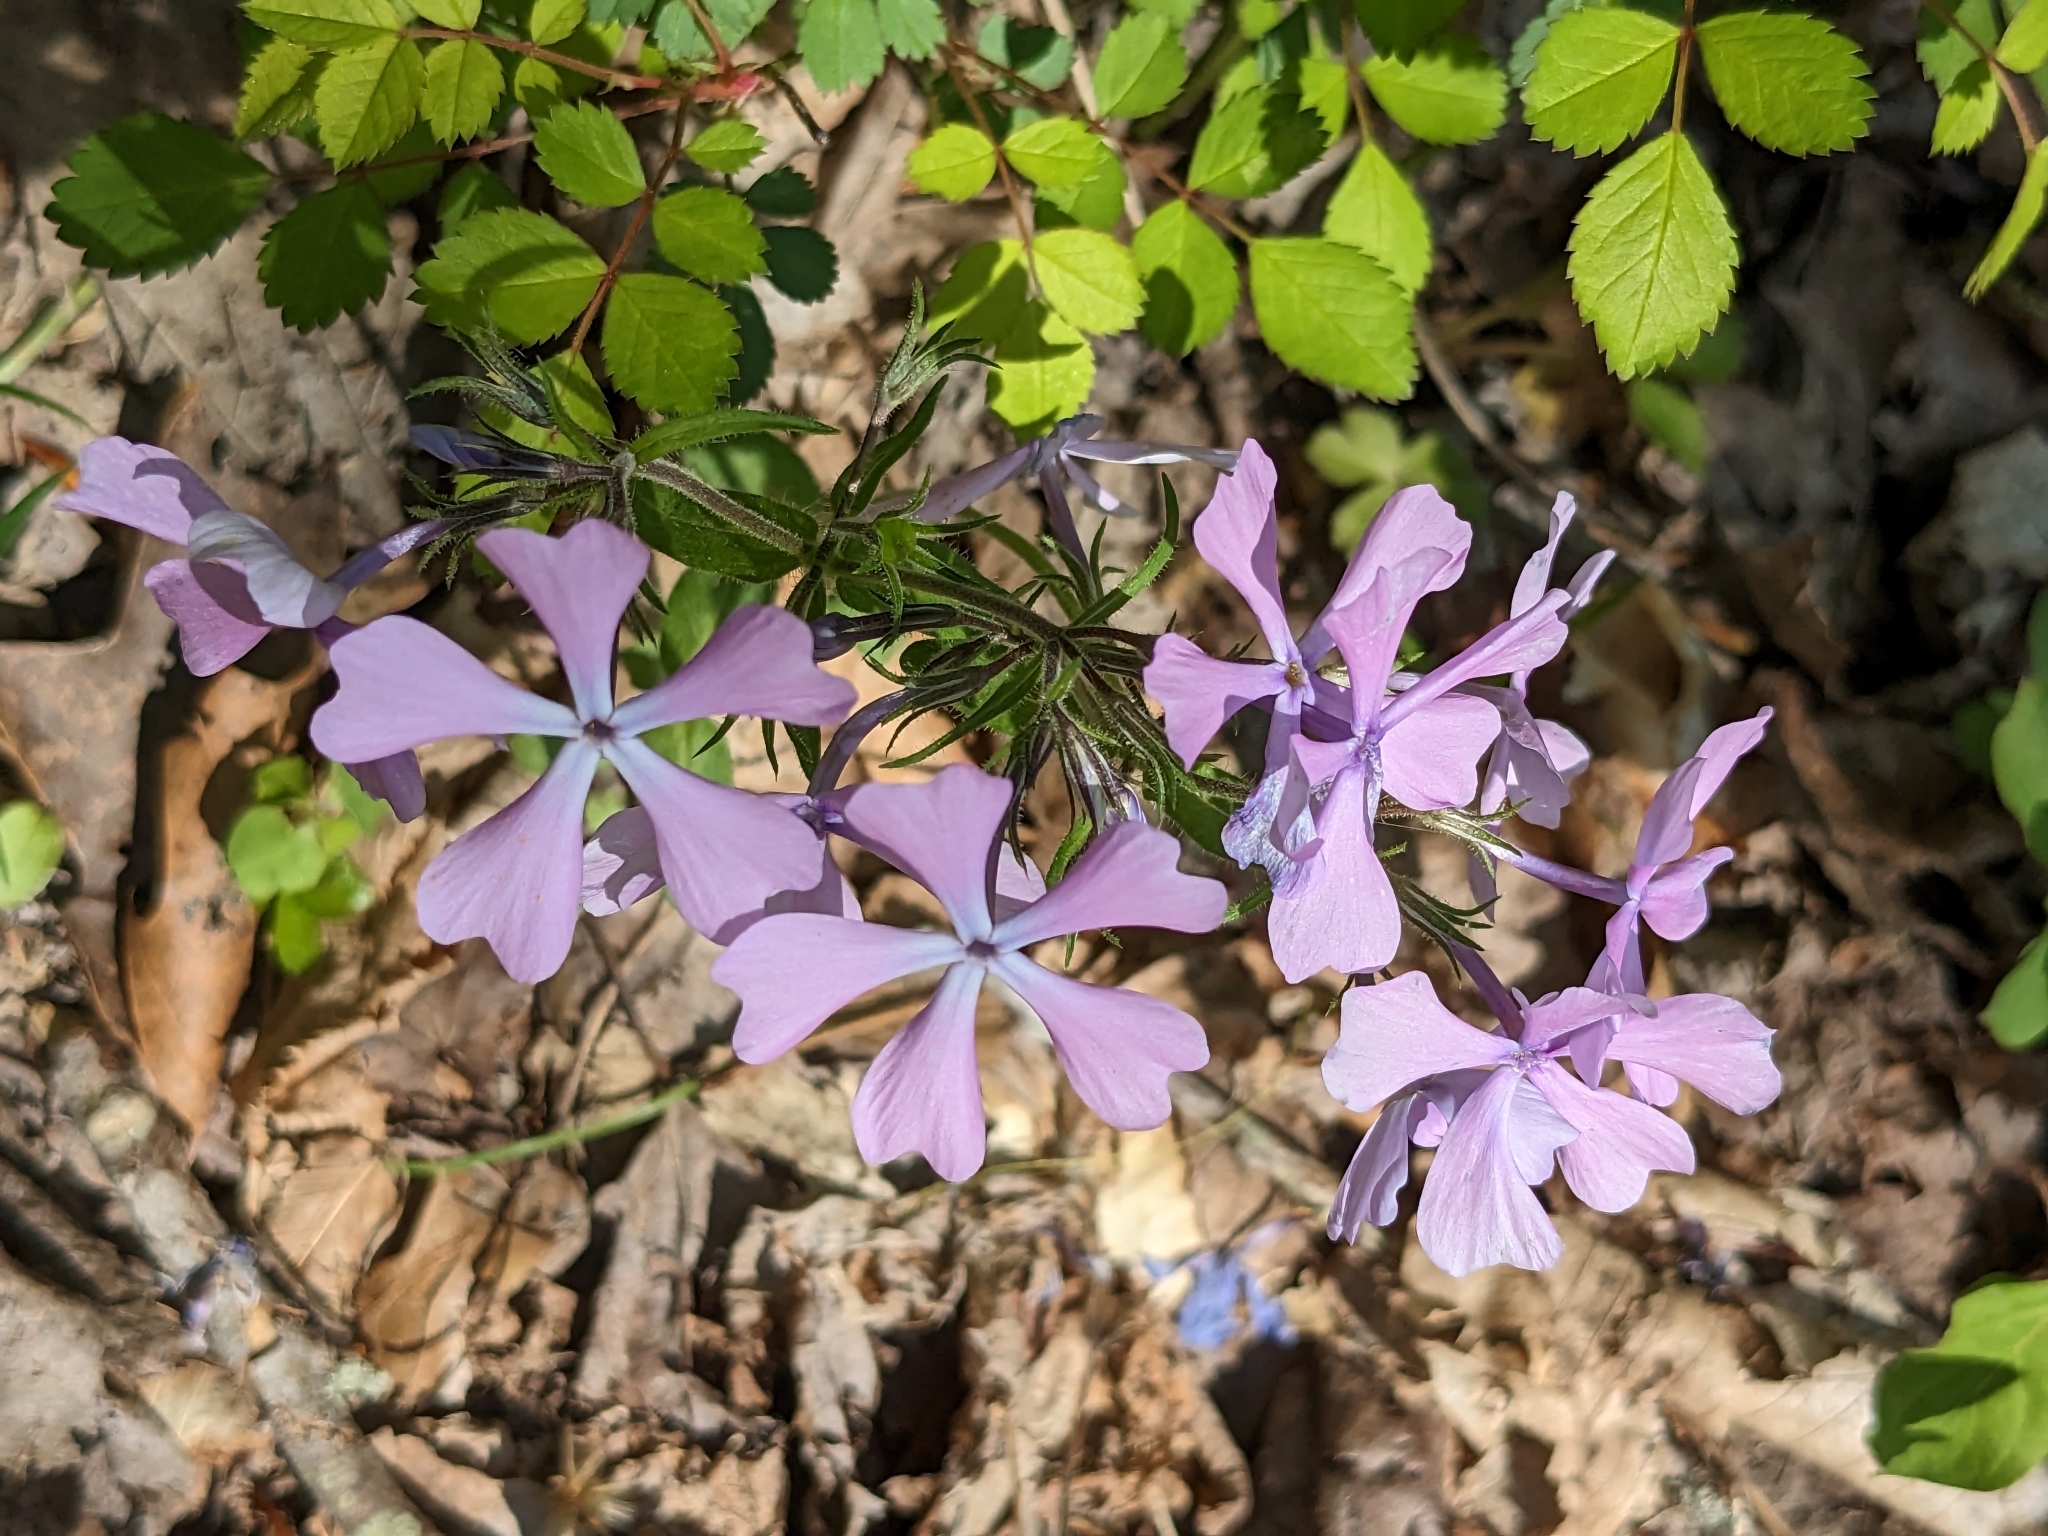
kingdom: Plantae
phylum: Tracheophyta
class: Magnoliopsida
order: Ericales
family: Polemoniaceae
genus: Phlox
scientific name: Phlox divaricata
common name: Blue phlox
